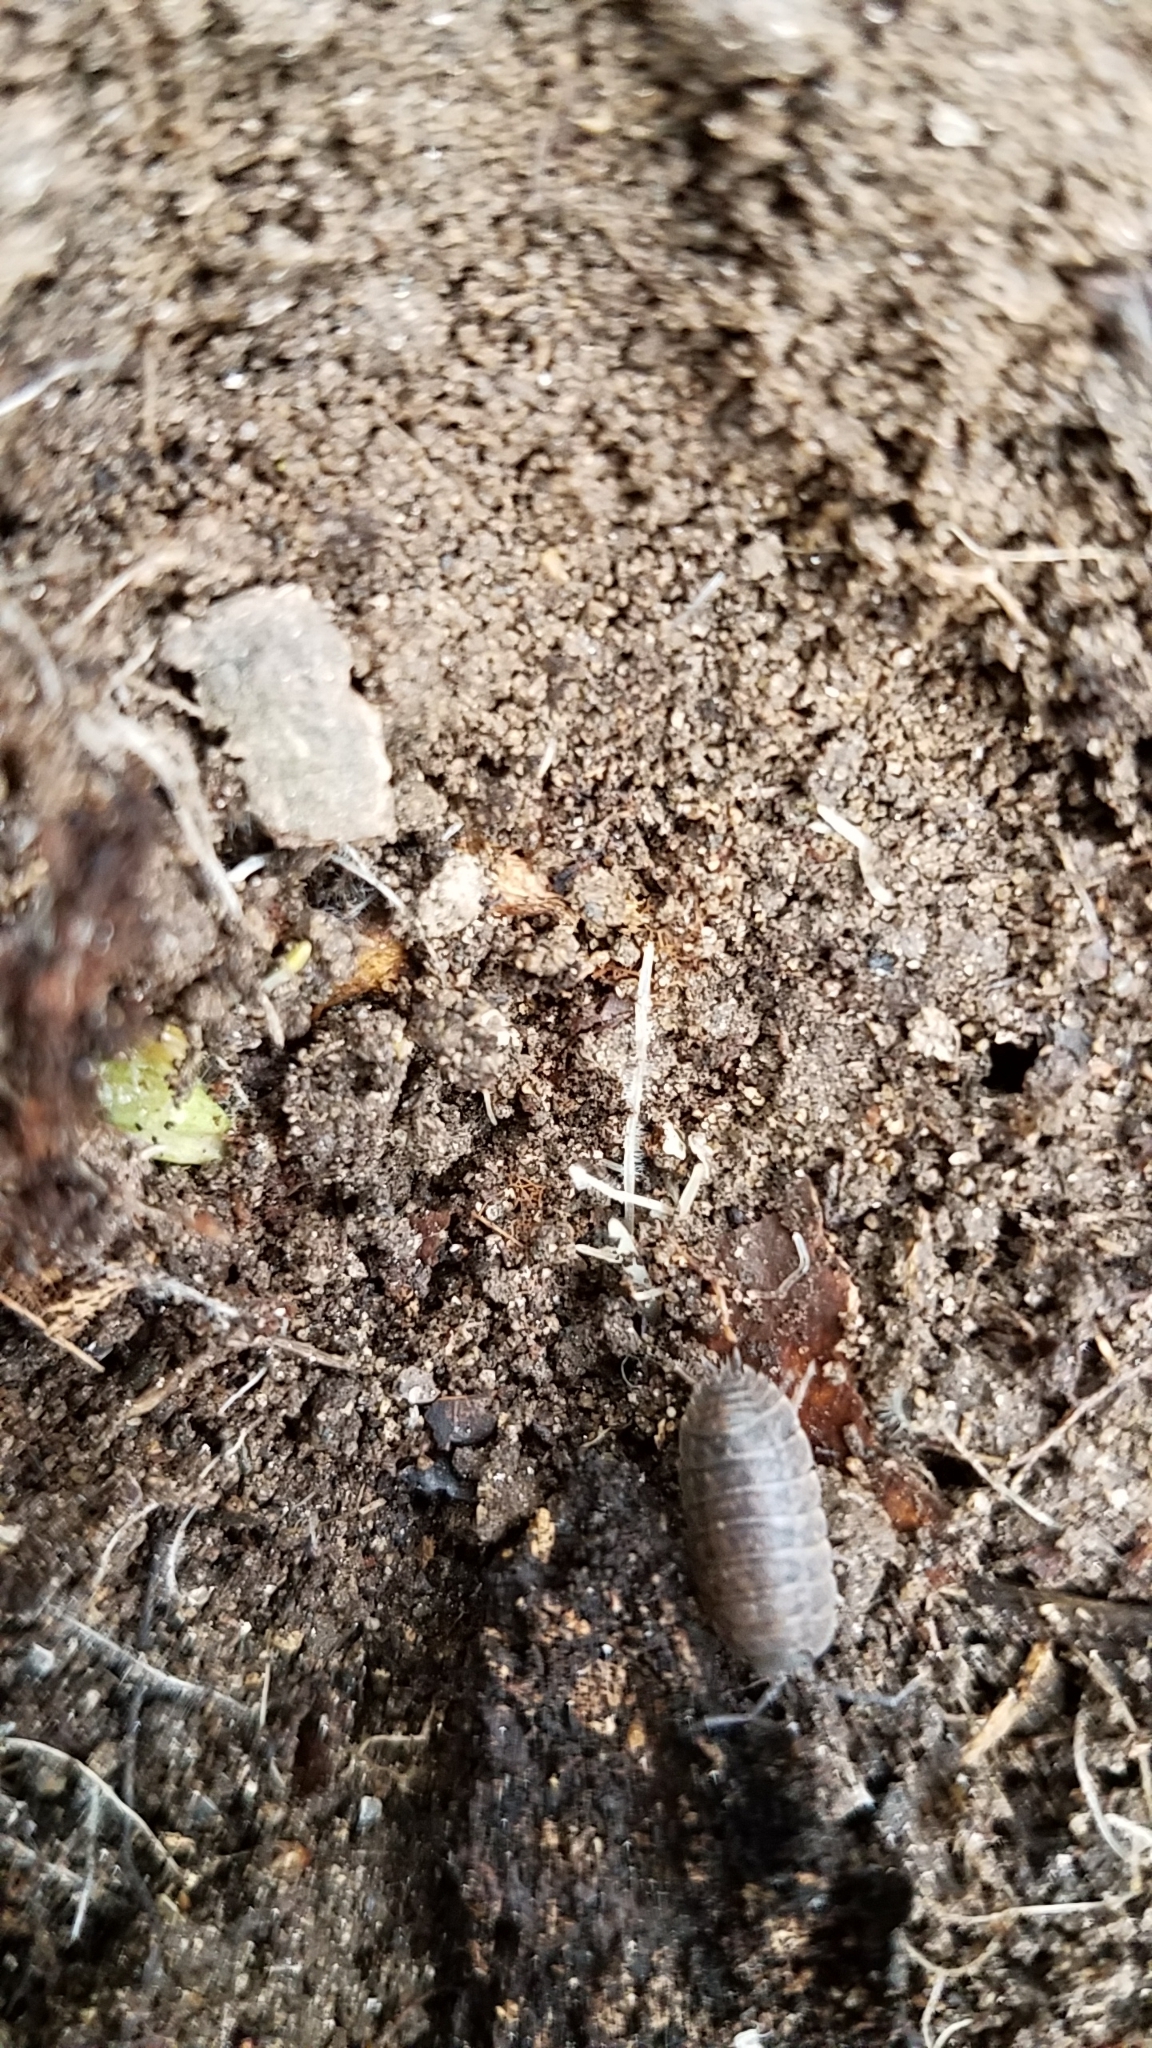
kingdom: Animalia
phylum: Arthropoda
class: Malacostraca
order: Isopoda
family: Trachelipodidae
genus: Trachelipus
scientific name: Trachelipus rathkii
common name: Isopod
